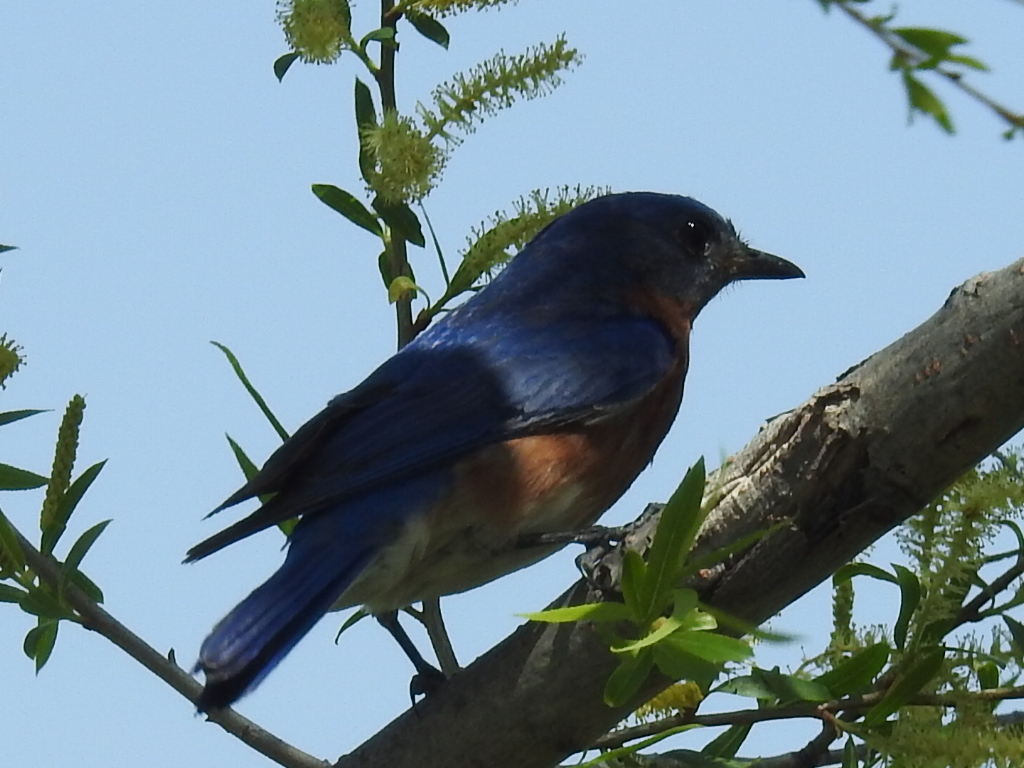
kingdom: Animalia
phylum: Chordata
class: Aves
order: Passeriformes
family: Turdidae
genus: Sialia
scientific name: Sialia sialis
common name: Eastern bluebird
